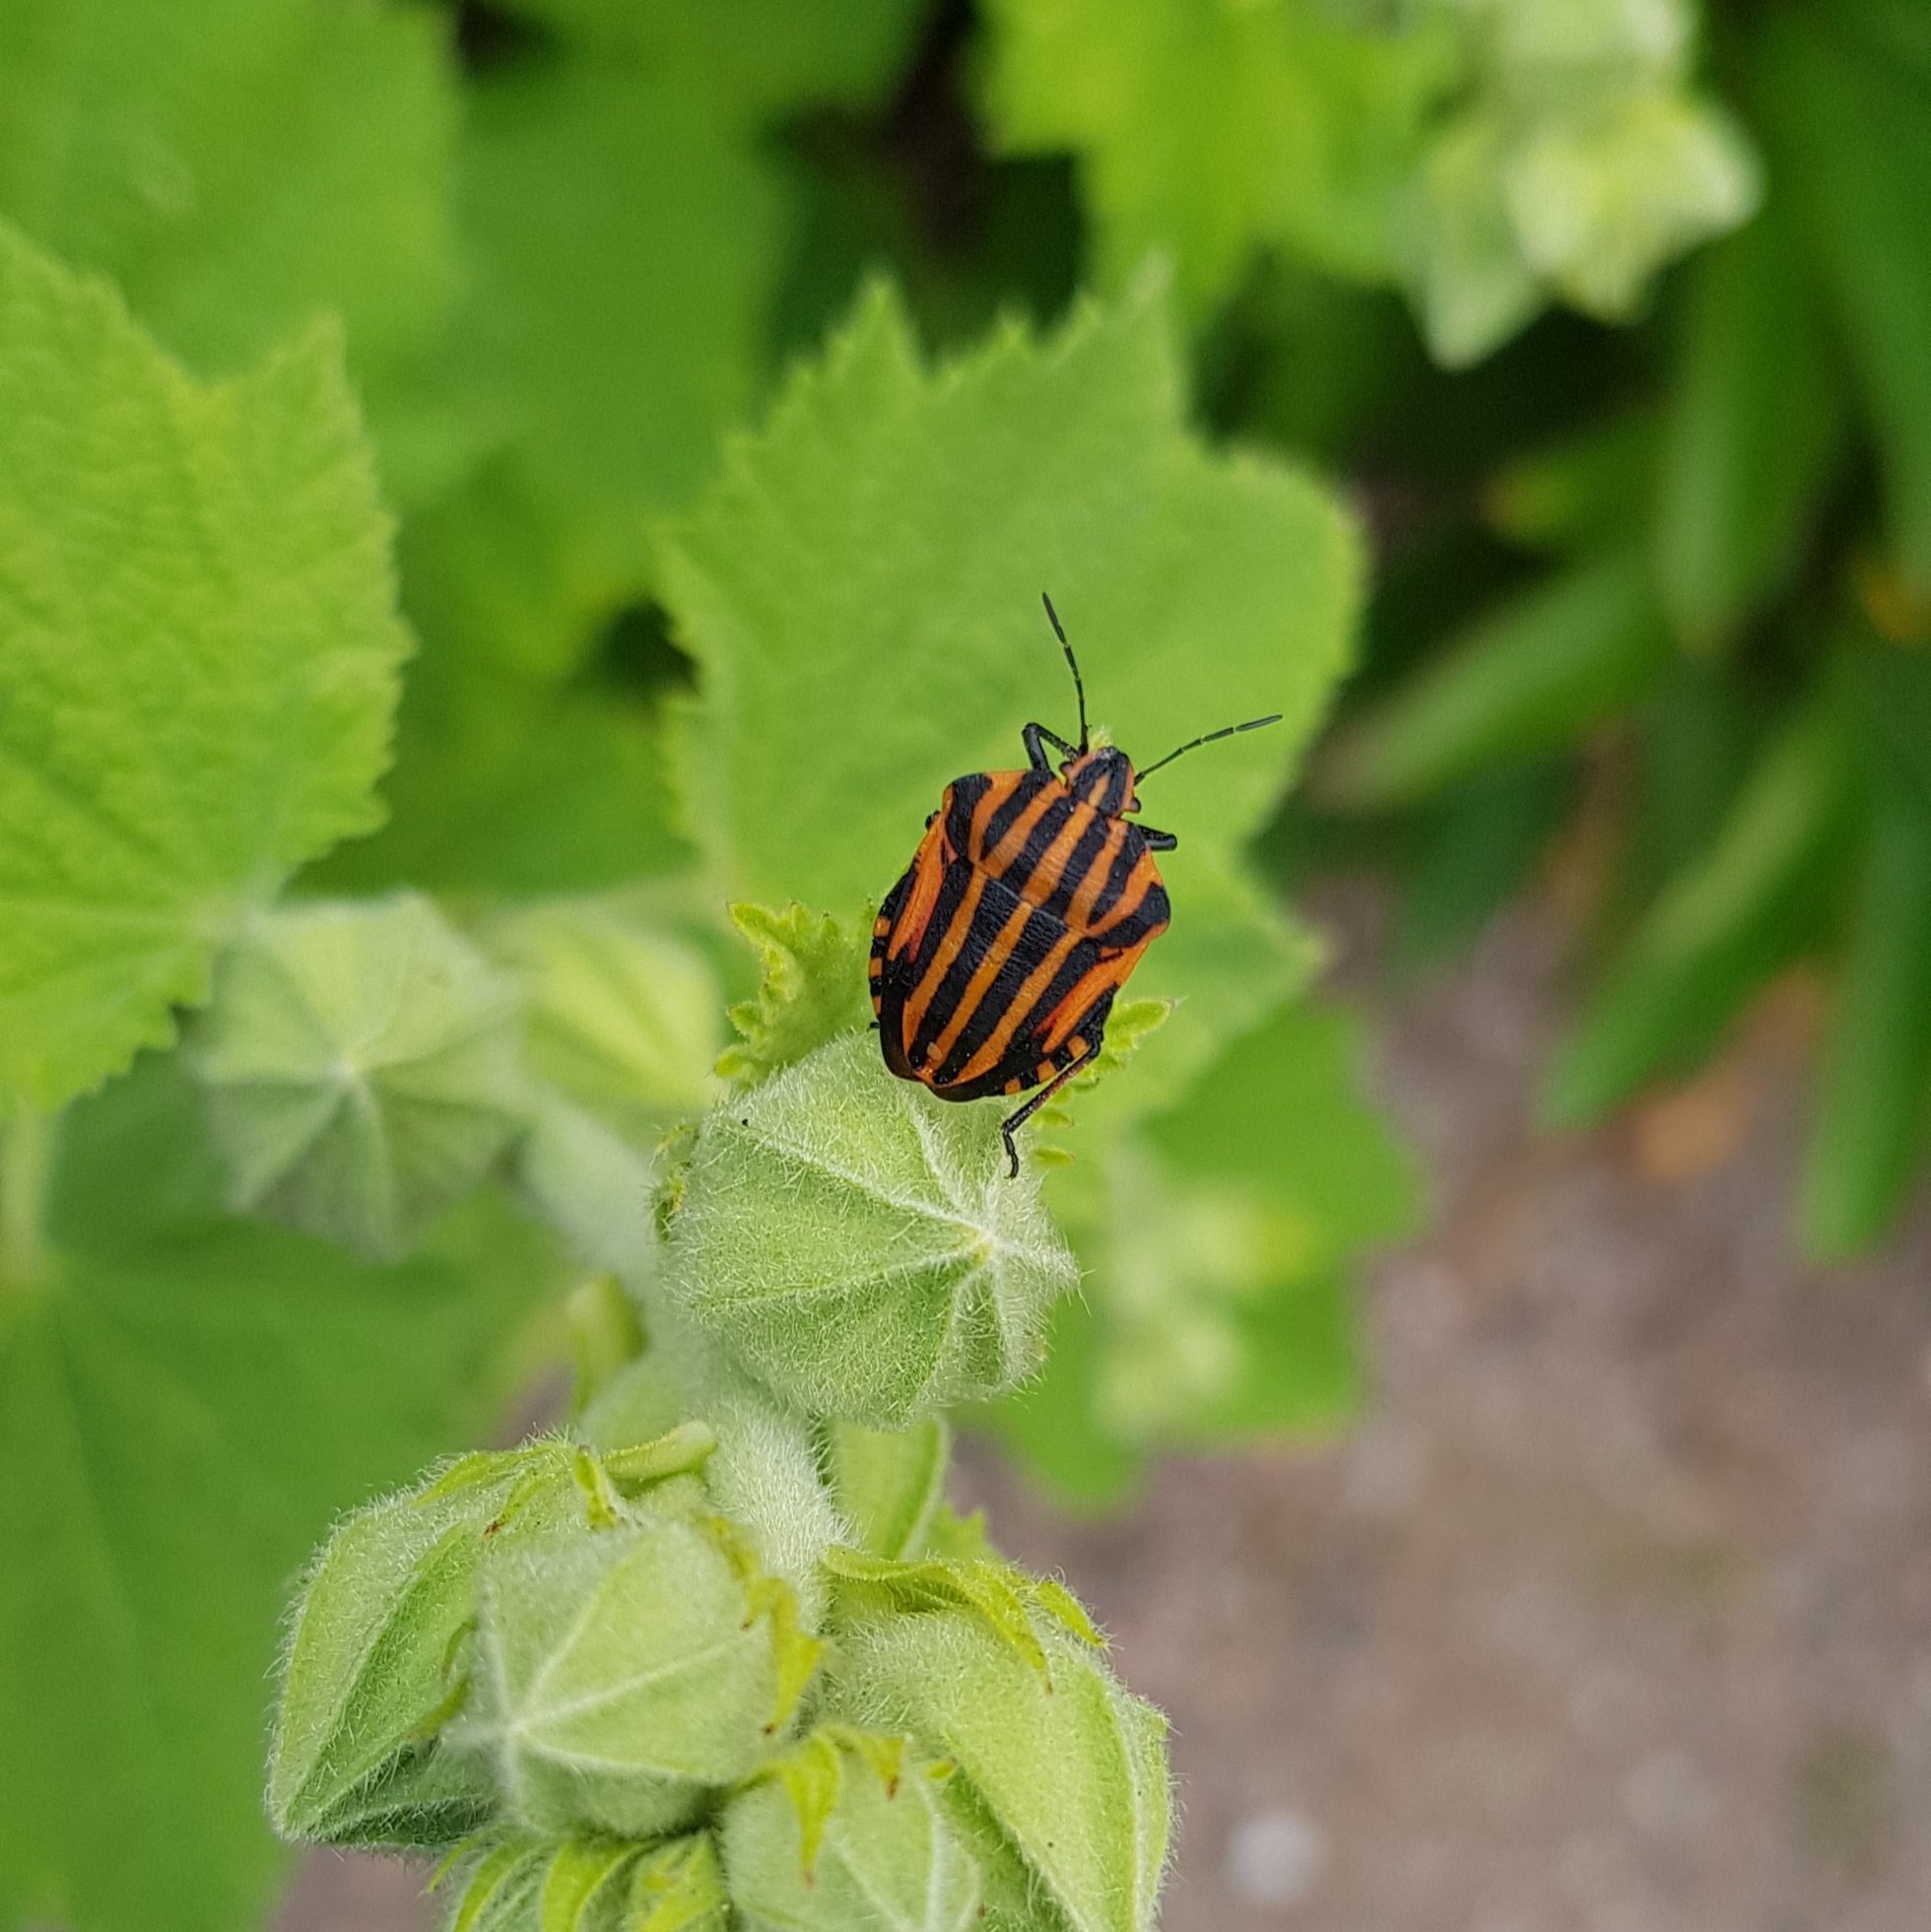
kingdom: Animalia
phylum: Arthropoda
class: Insecta
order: Hemiptera
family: Pentatomidae
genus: Graphosoma
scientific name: Graphosoma italicum
